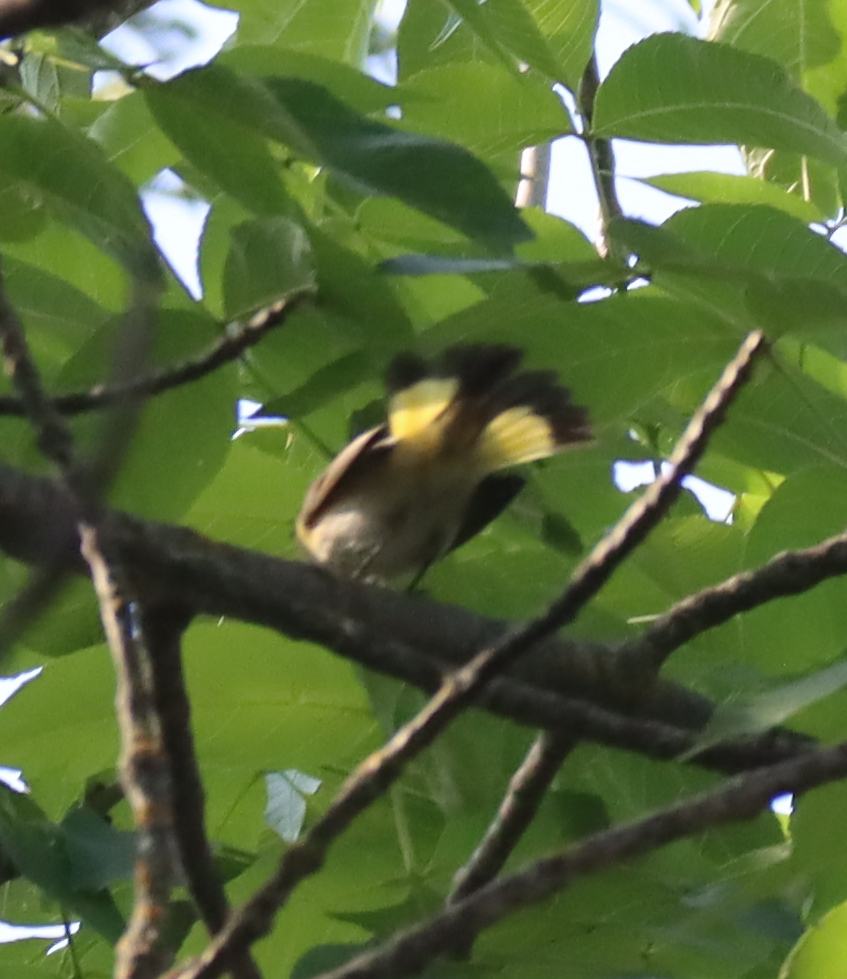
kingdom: Animalia
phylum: Chordata
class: Aves
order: Passeriformes
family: Parulidae
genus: Setophaga
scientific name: Setophaga ruticilla
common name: American redstart
